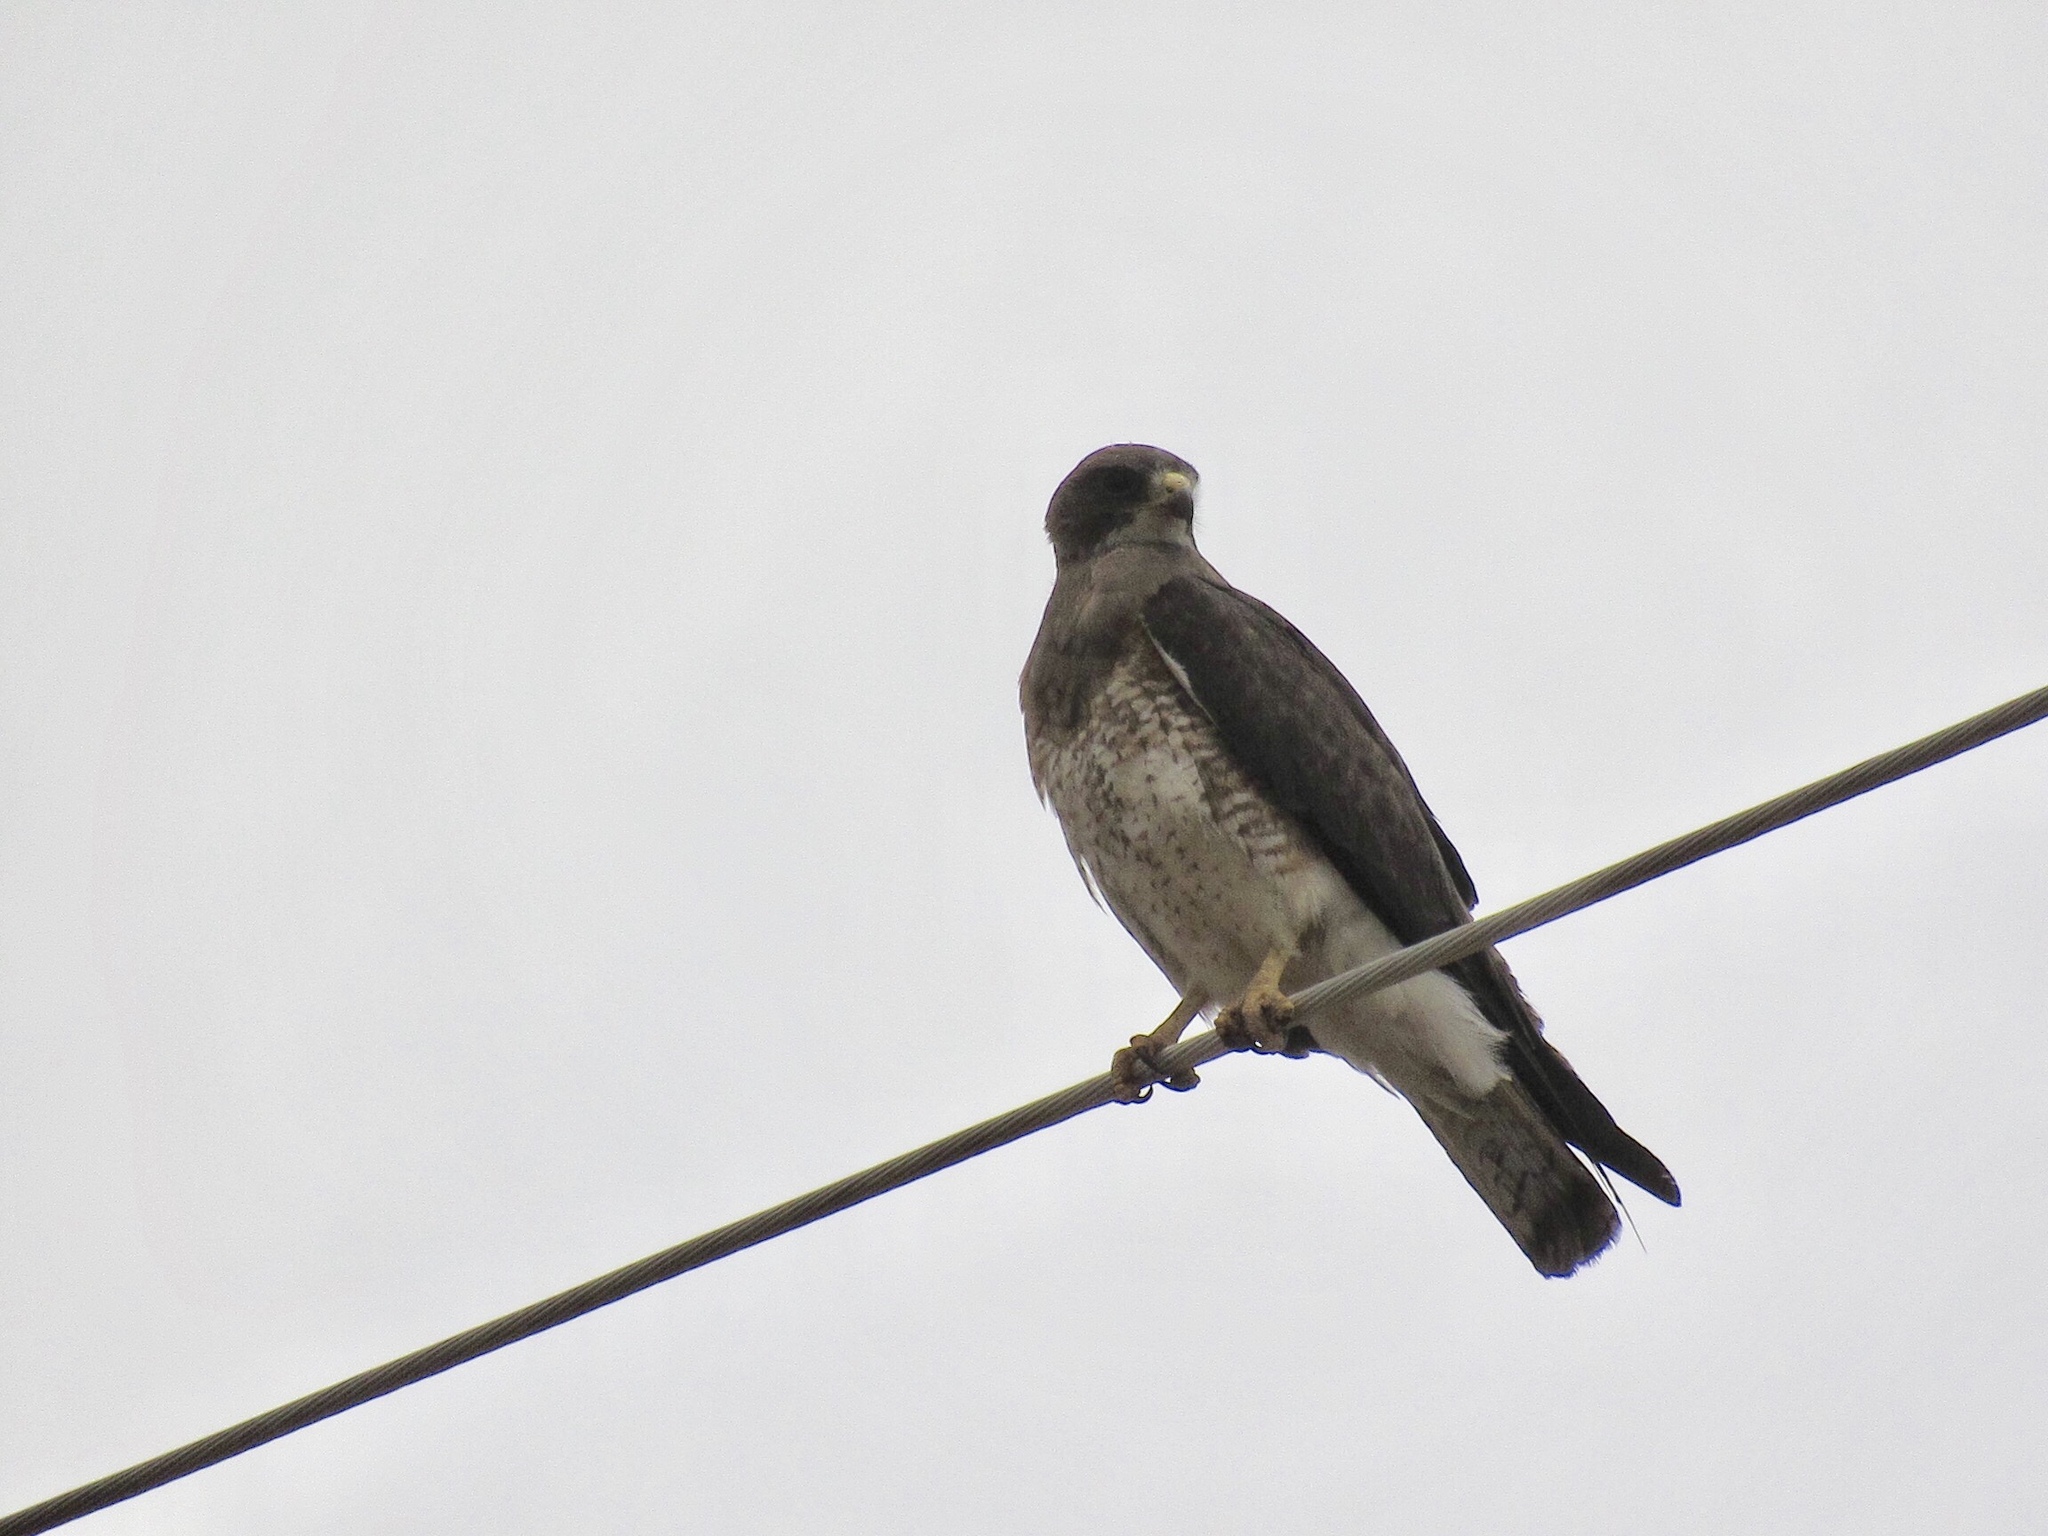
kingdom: Animalia
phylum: Chordata
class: Aves
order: Accipitriformes
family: Accipitridae
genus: Buteo
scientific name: Buteo swainsoni
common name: Swainson's hawk
